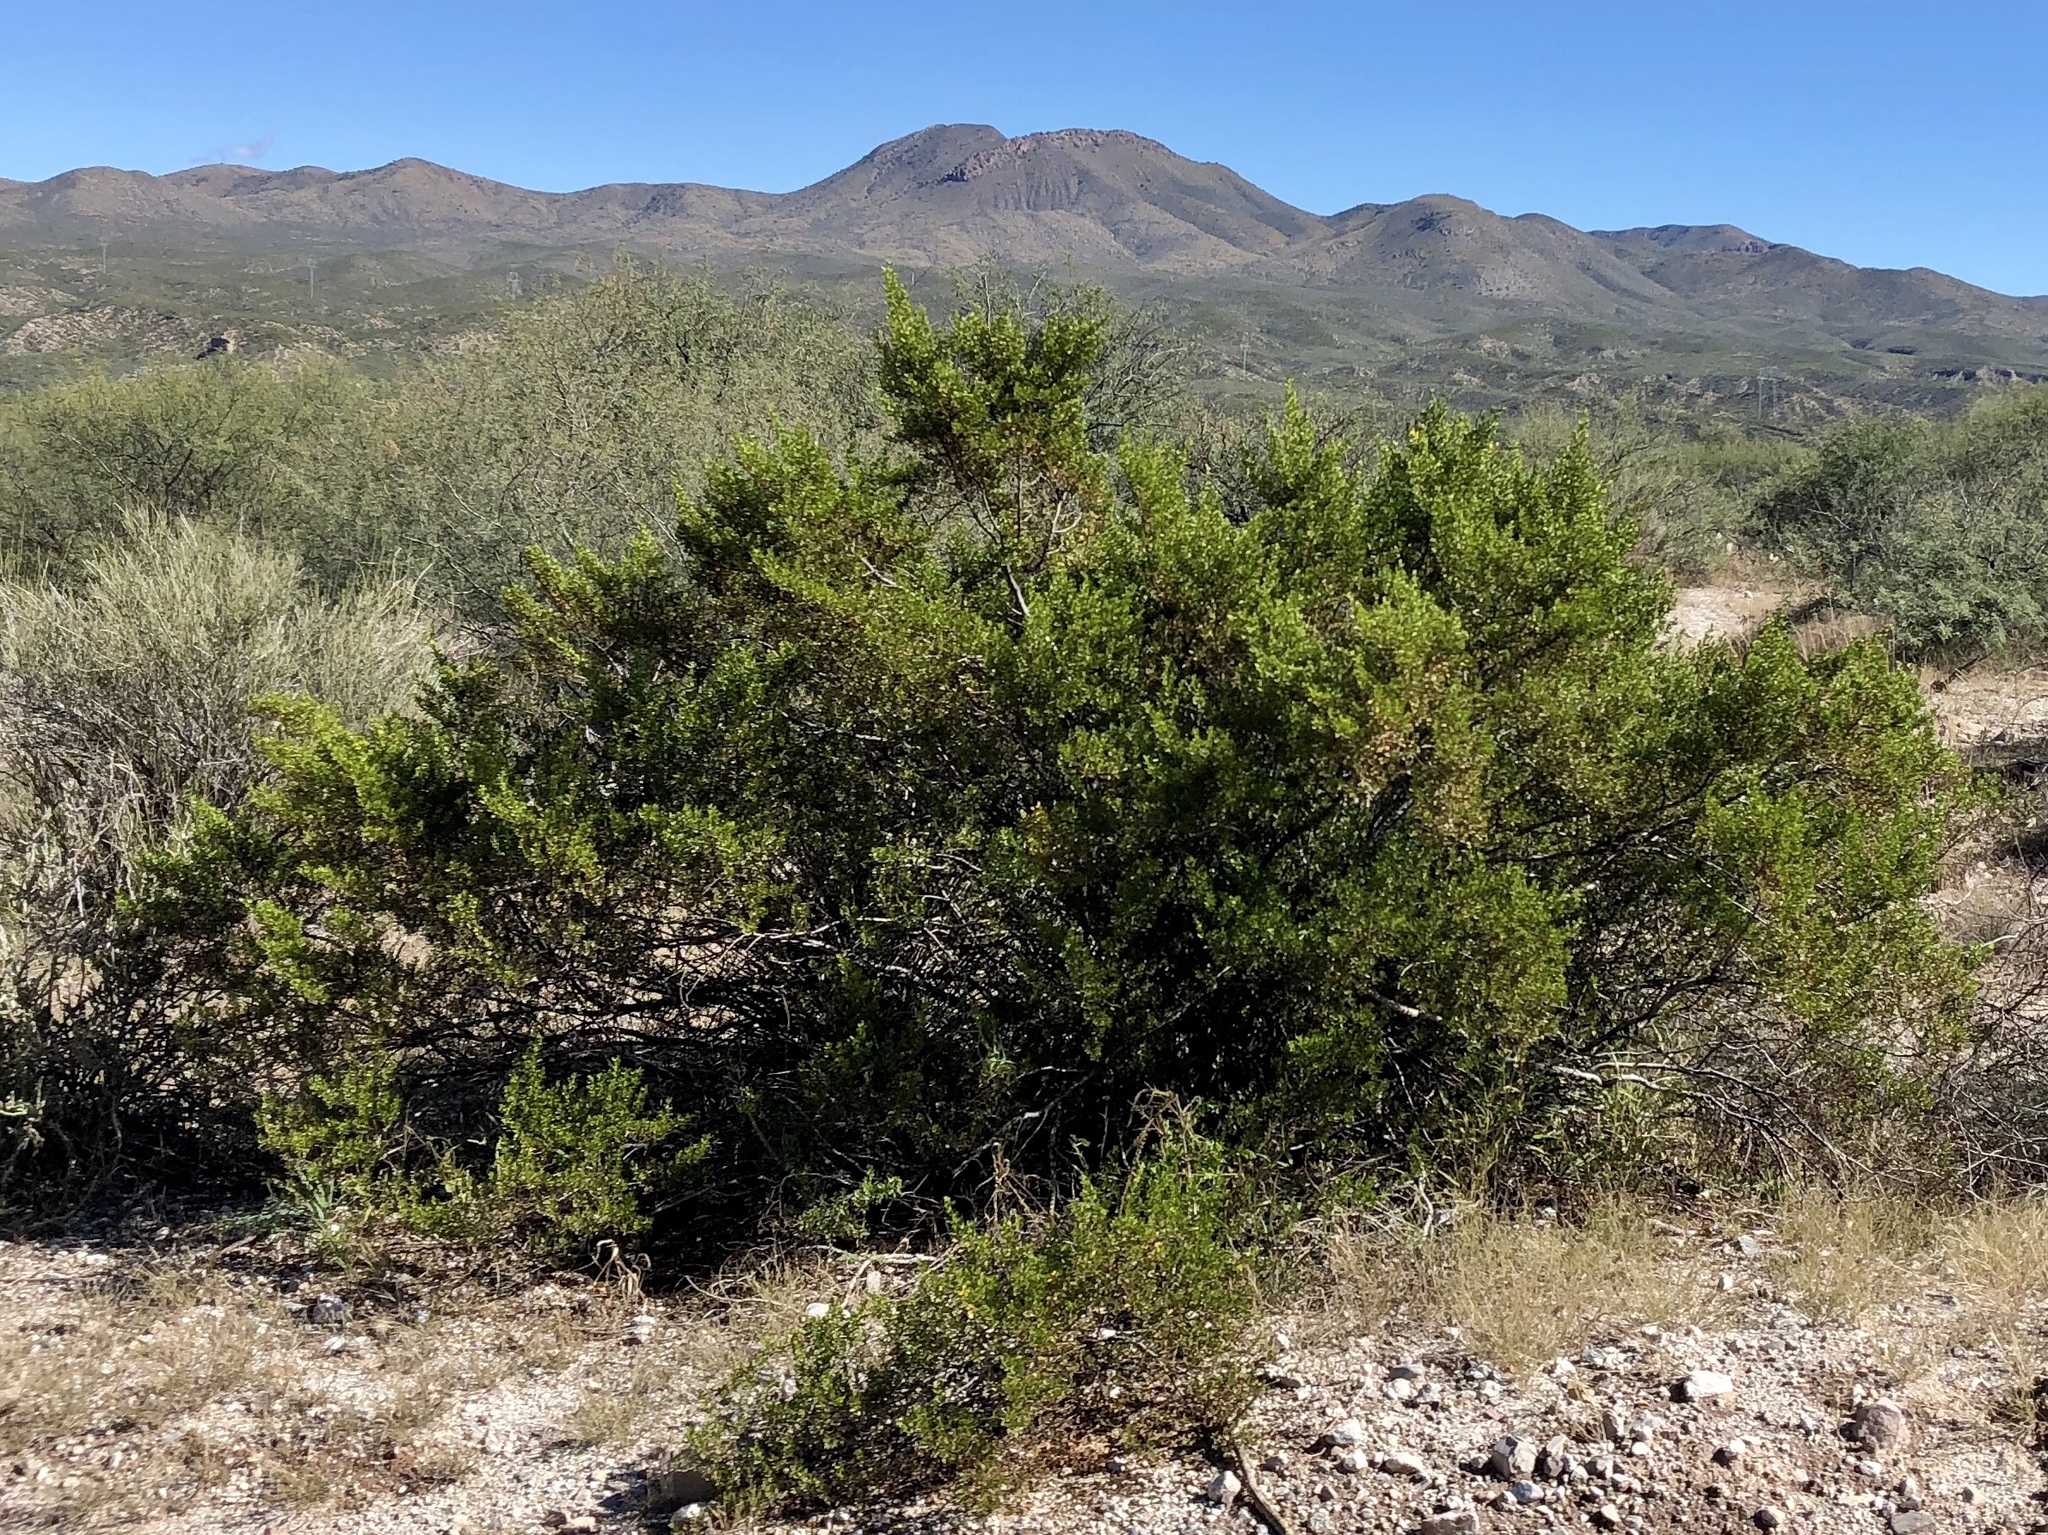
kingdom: Plantae
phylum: Tracheophyta
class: Magnoliopsida
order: Zygophyllales
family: Zygophyllaceae
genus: Larrea
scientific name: Larrea tridentata
